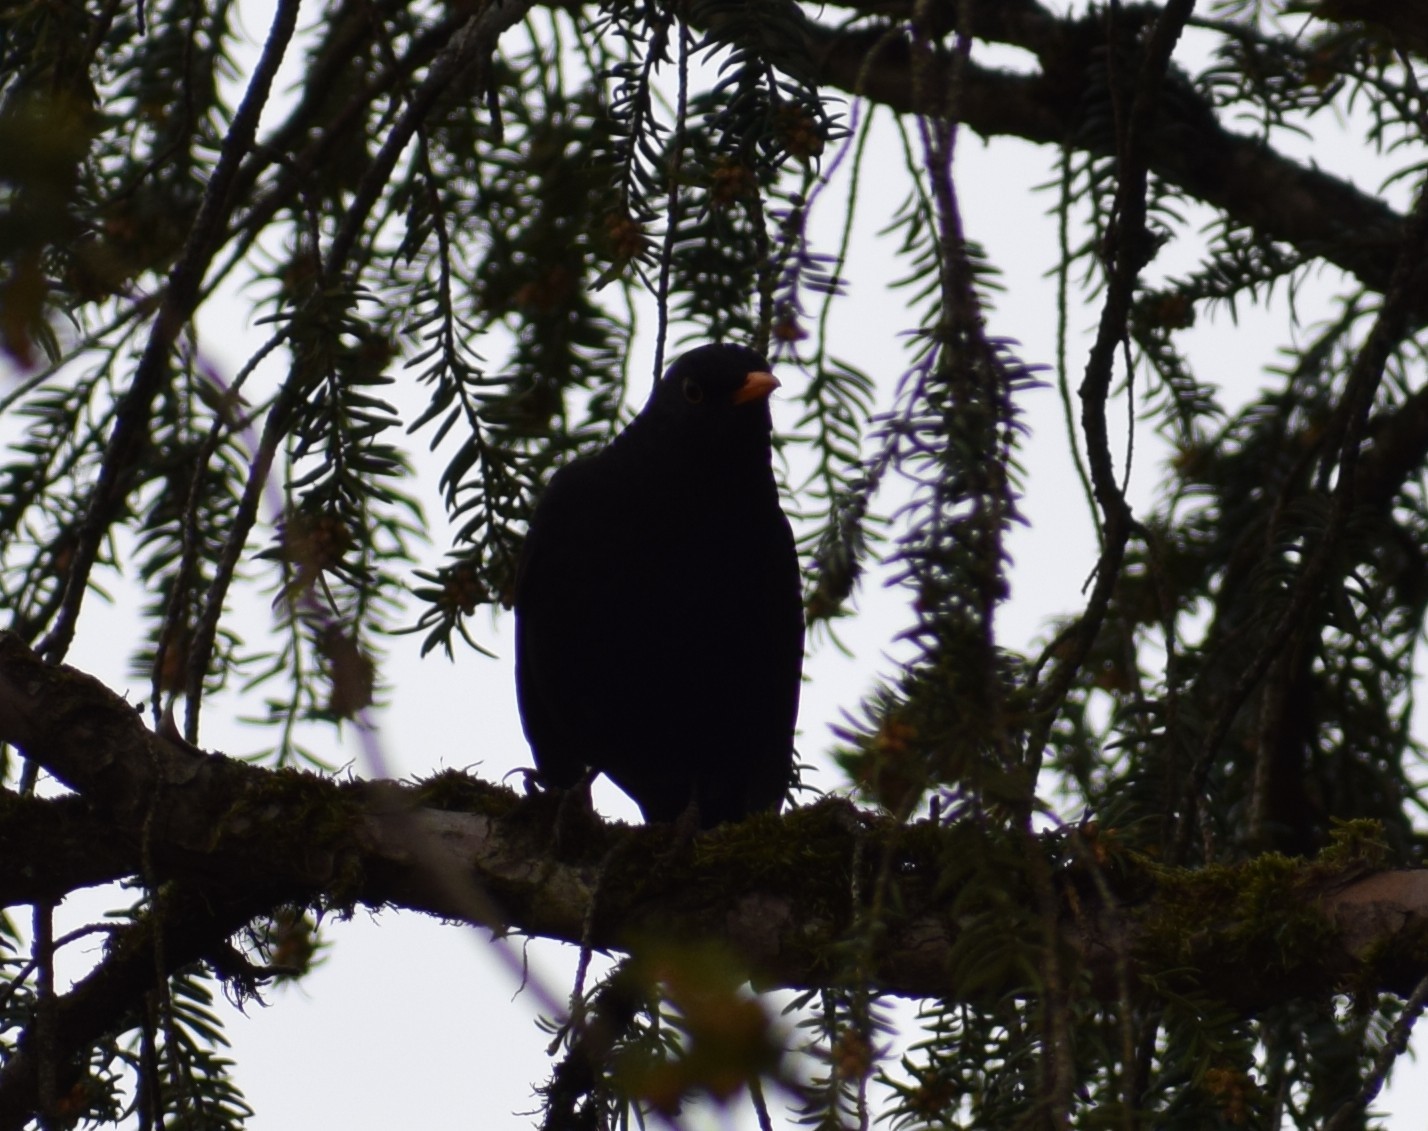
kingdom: Animalia
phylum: Chordata
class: Aves
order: Passeriformes
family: Turdidae
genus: Turdus
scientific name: Turdus merula
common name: Common blackbird
